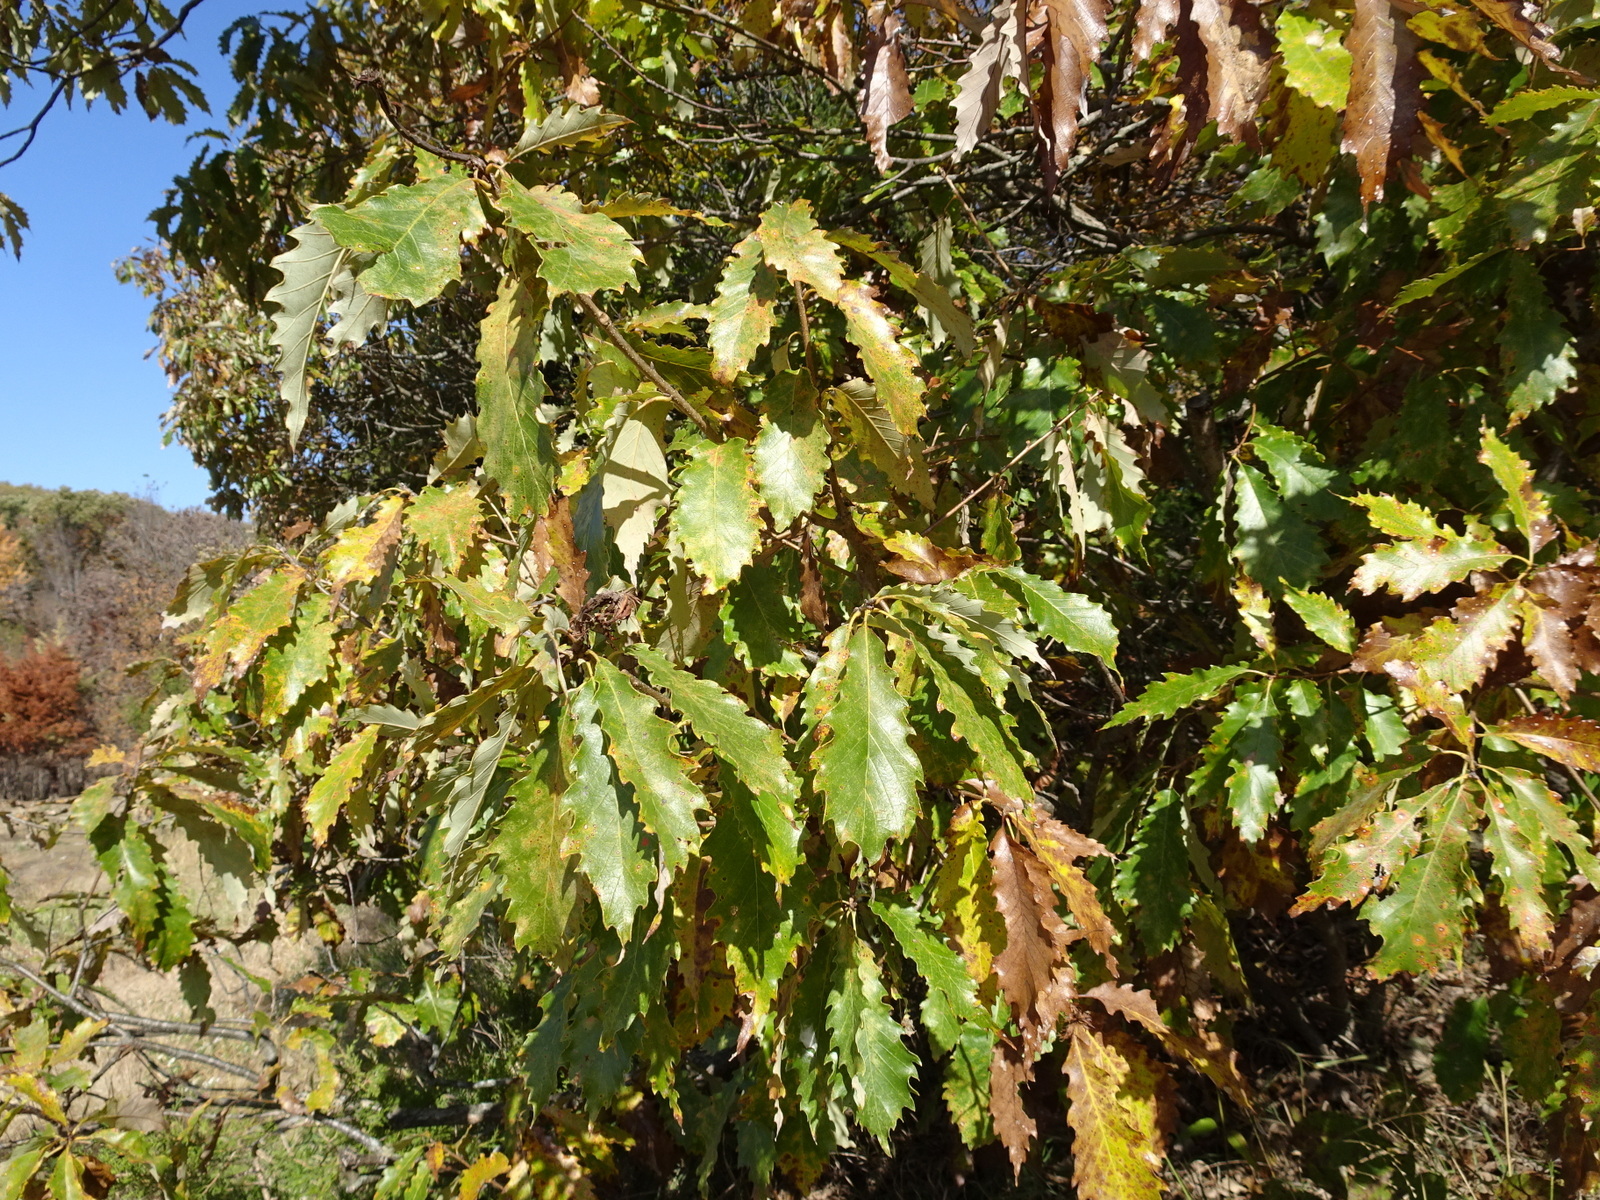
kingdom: Plantae
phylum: Tracheophyta
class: Magnoliopsida
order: Fagales
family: Fagaceae
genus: Quercus
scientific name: Quercus muehlenbergii
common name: Chinkapin oak
